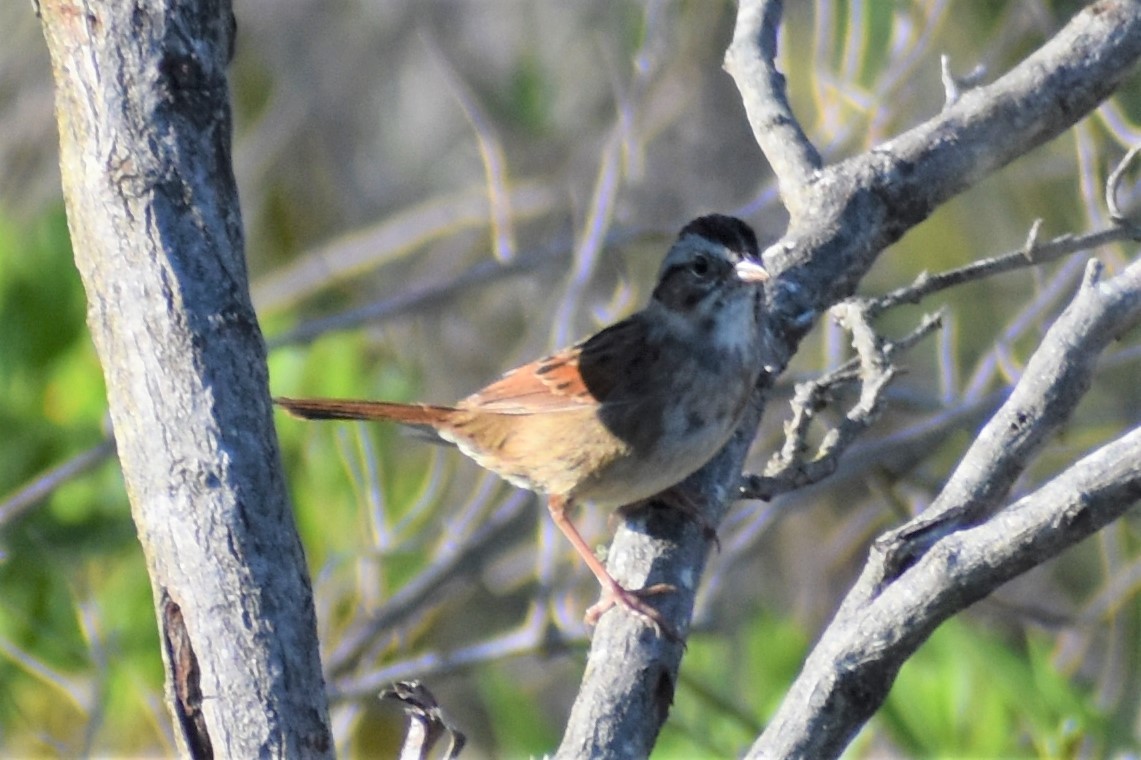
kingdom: Animalia
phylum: Chordata
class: Aves
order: Passeriformes
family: Passerellidae
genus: Melospiza
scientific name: Melospiza georgiana
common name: Swamp sparrow
